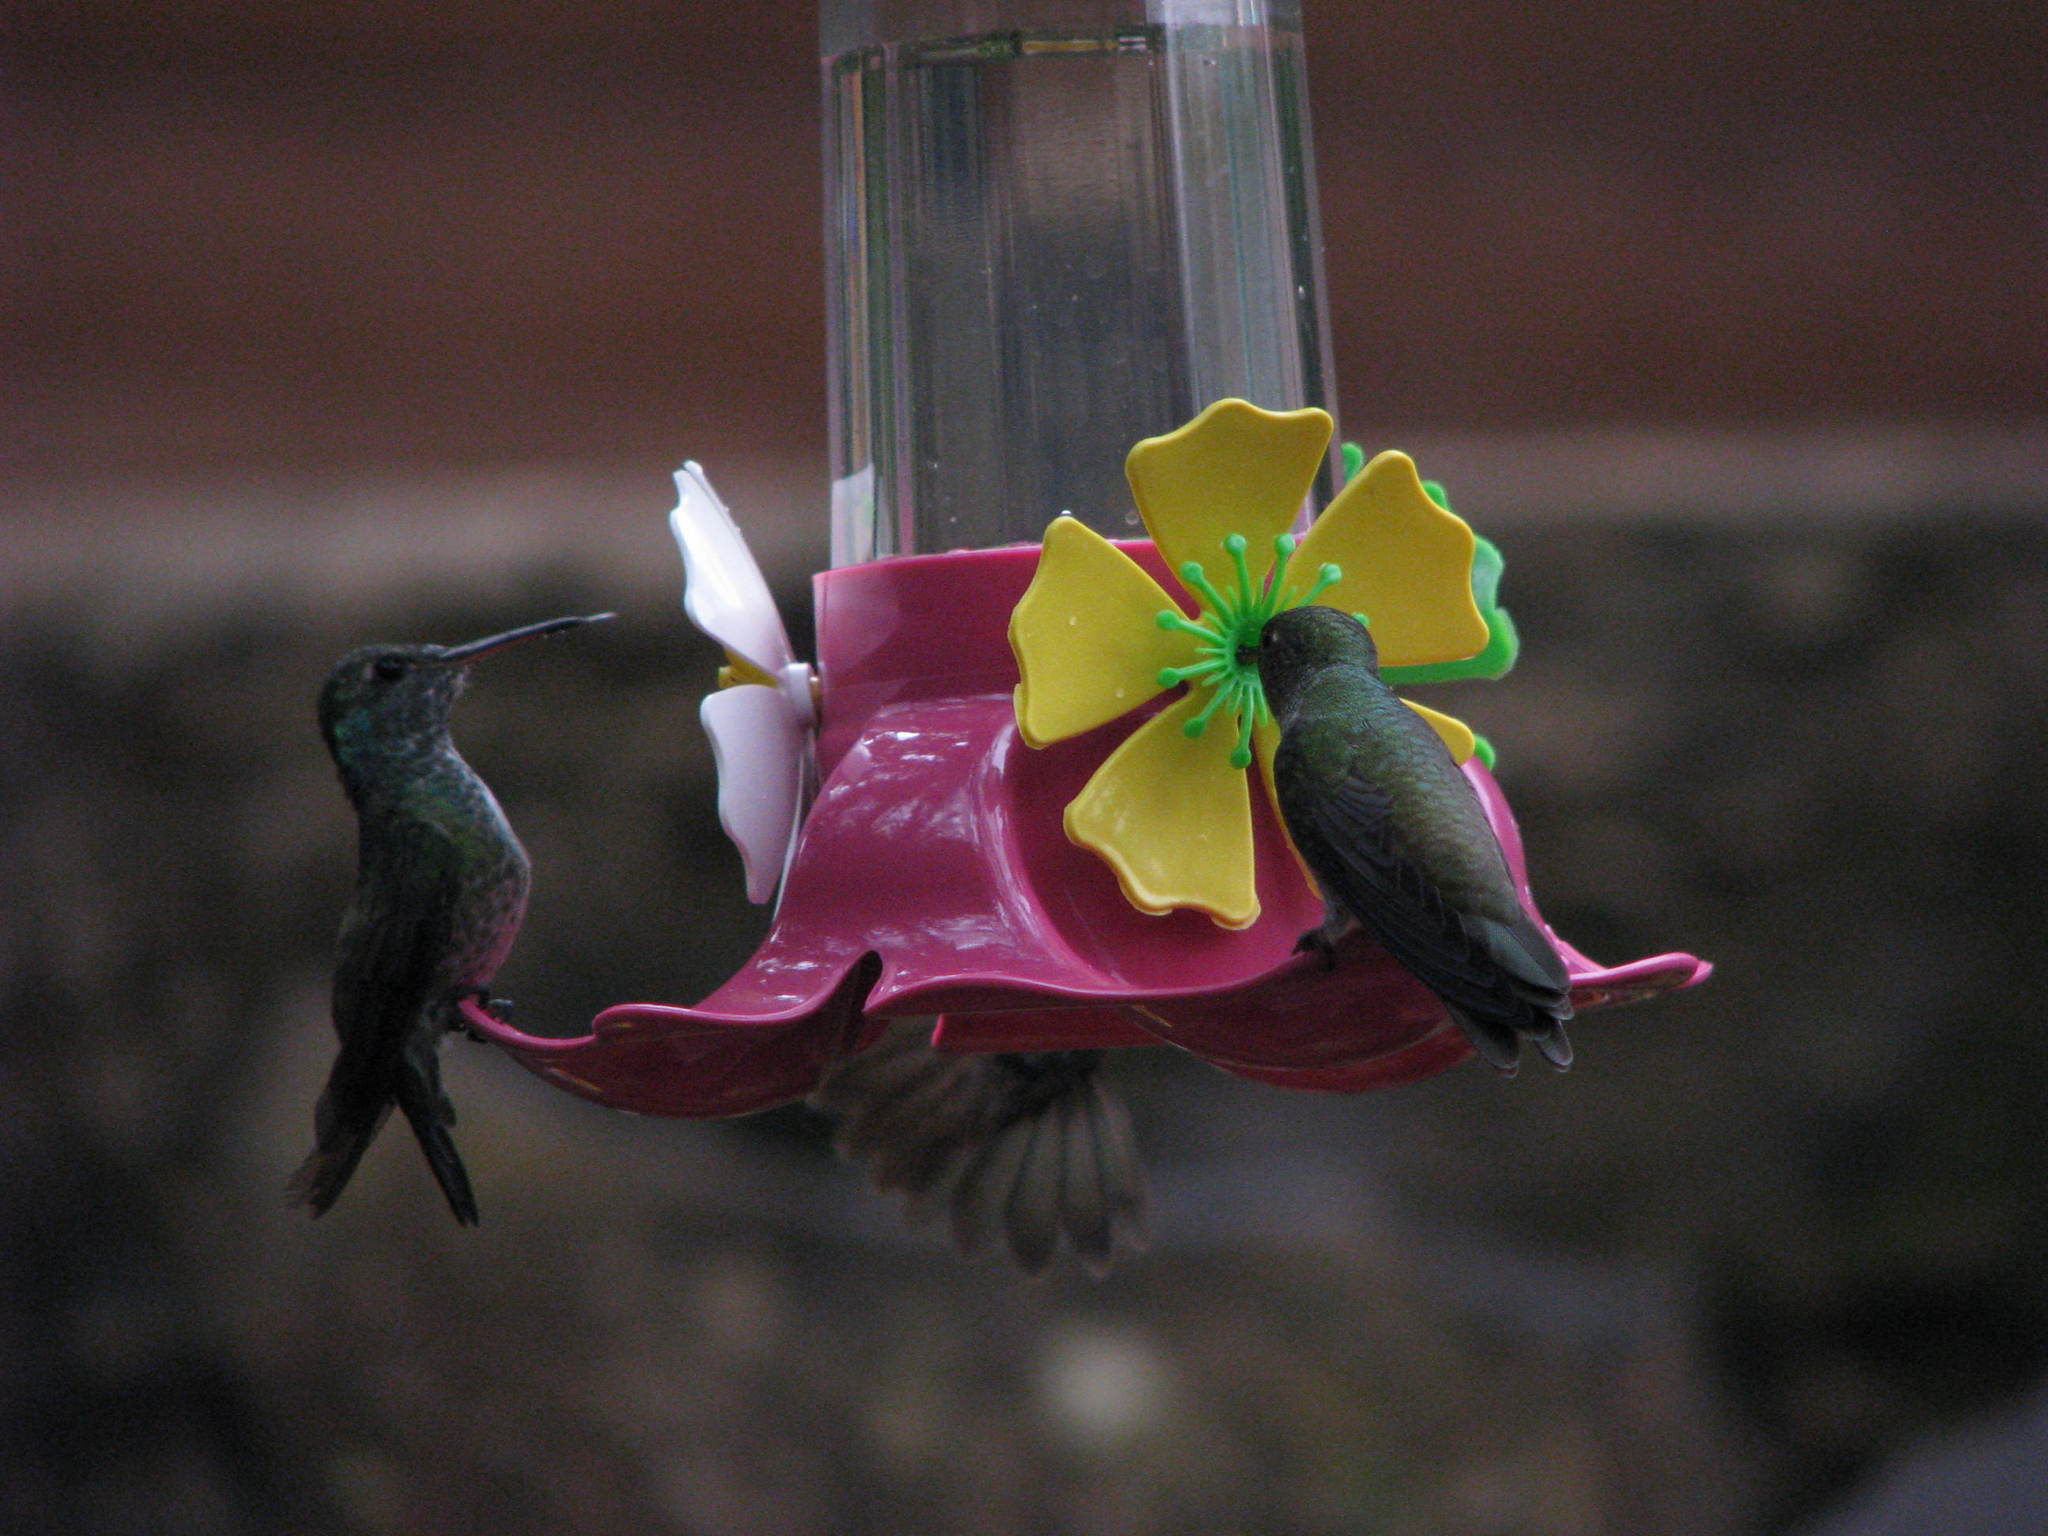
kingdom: Animalia
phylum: Chordata
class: Aves
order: Apodiformes
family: Trochilidae
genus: Chrysuronia
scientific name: Chrysuronia versicolor
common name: Versicolored emerald
